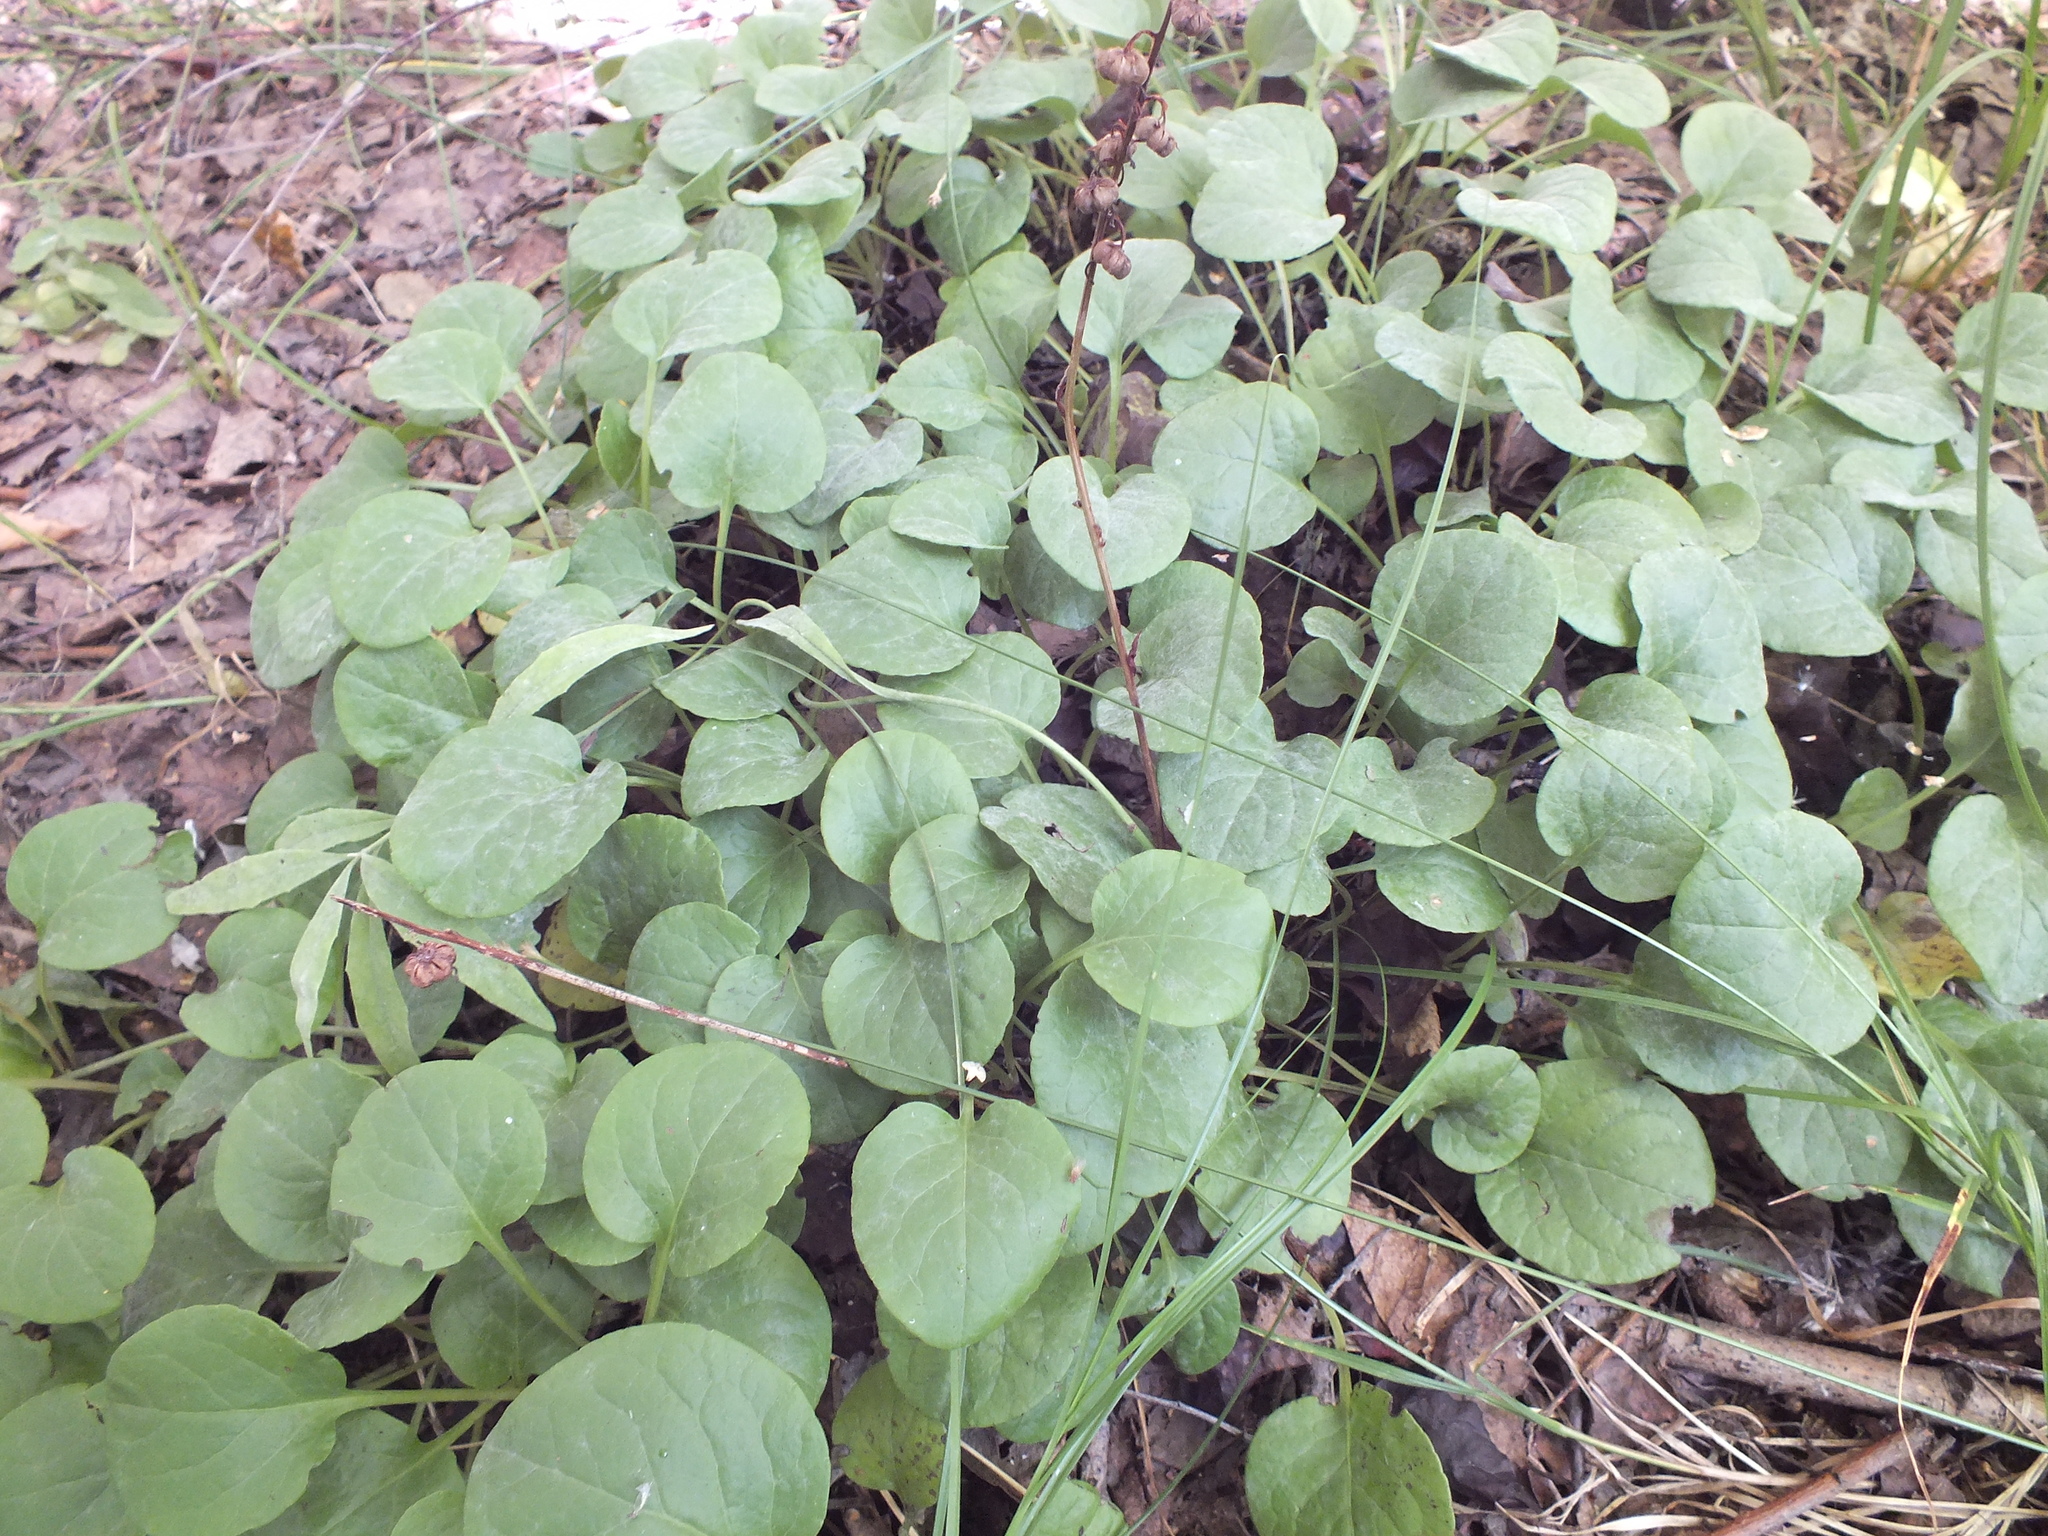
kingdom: Plantae
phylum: Tracheophyta
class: Magnoliopsida
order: Ericales
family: Ericaceae
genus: Pyrola
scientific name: Pyrola rotundifolia
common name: Round-leaved wintergreen
